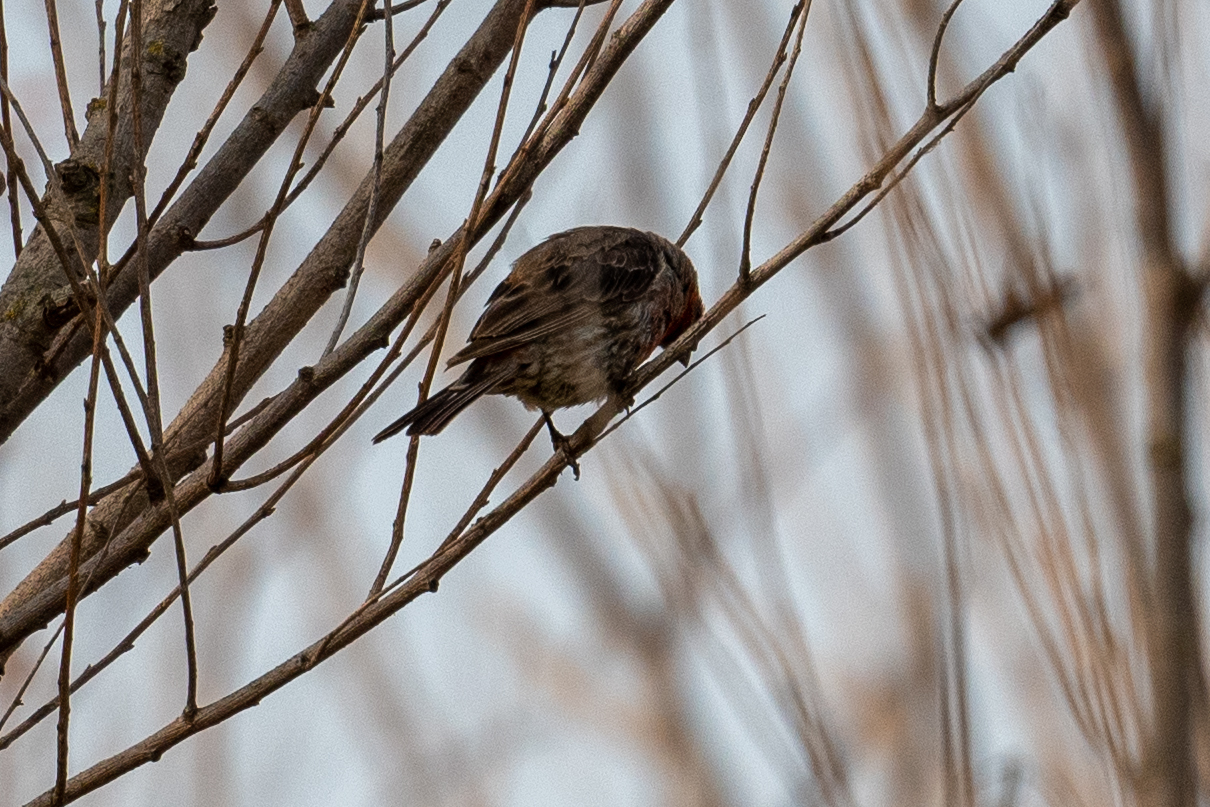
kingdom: Animalia
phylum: Chordata
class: Aves
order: Passeriformes
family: Fringillidae
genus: Haemorhous
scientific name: Haemorhous mexicanus
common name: House finch
